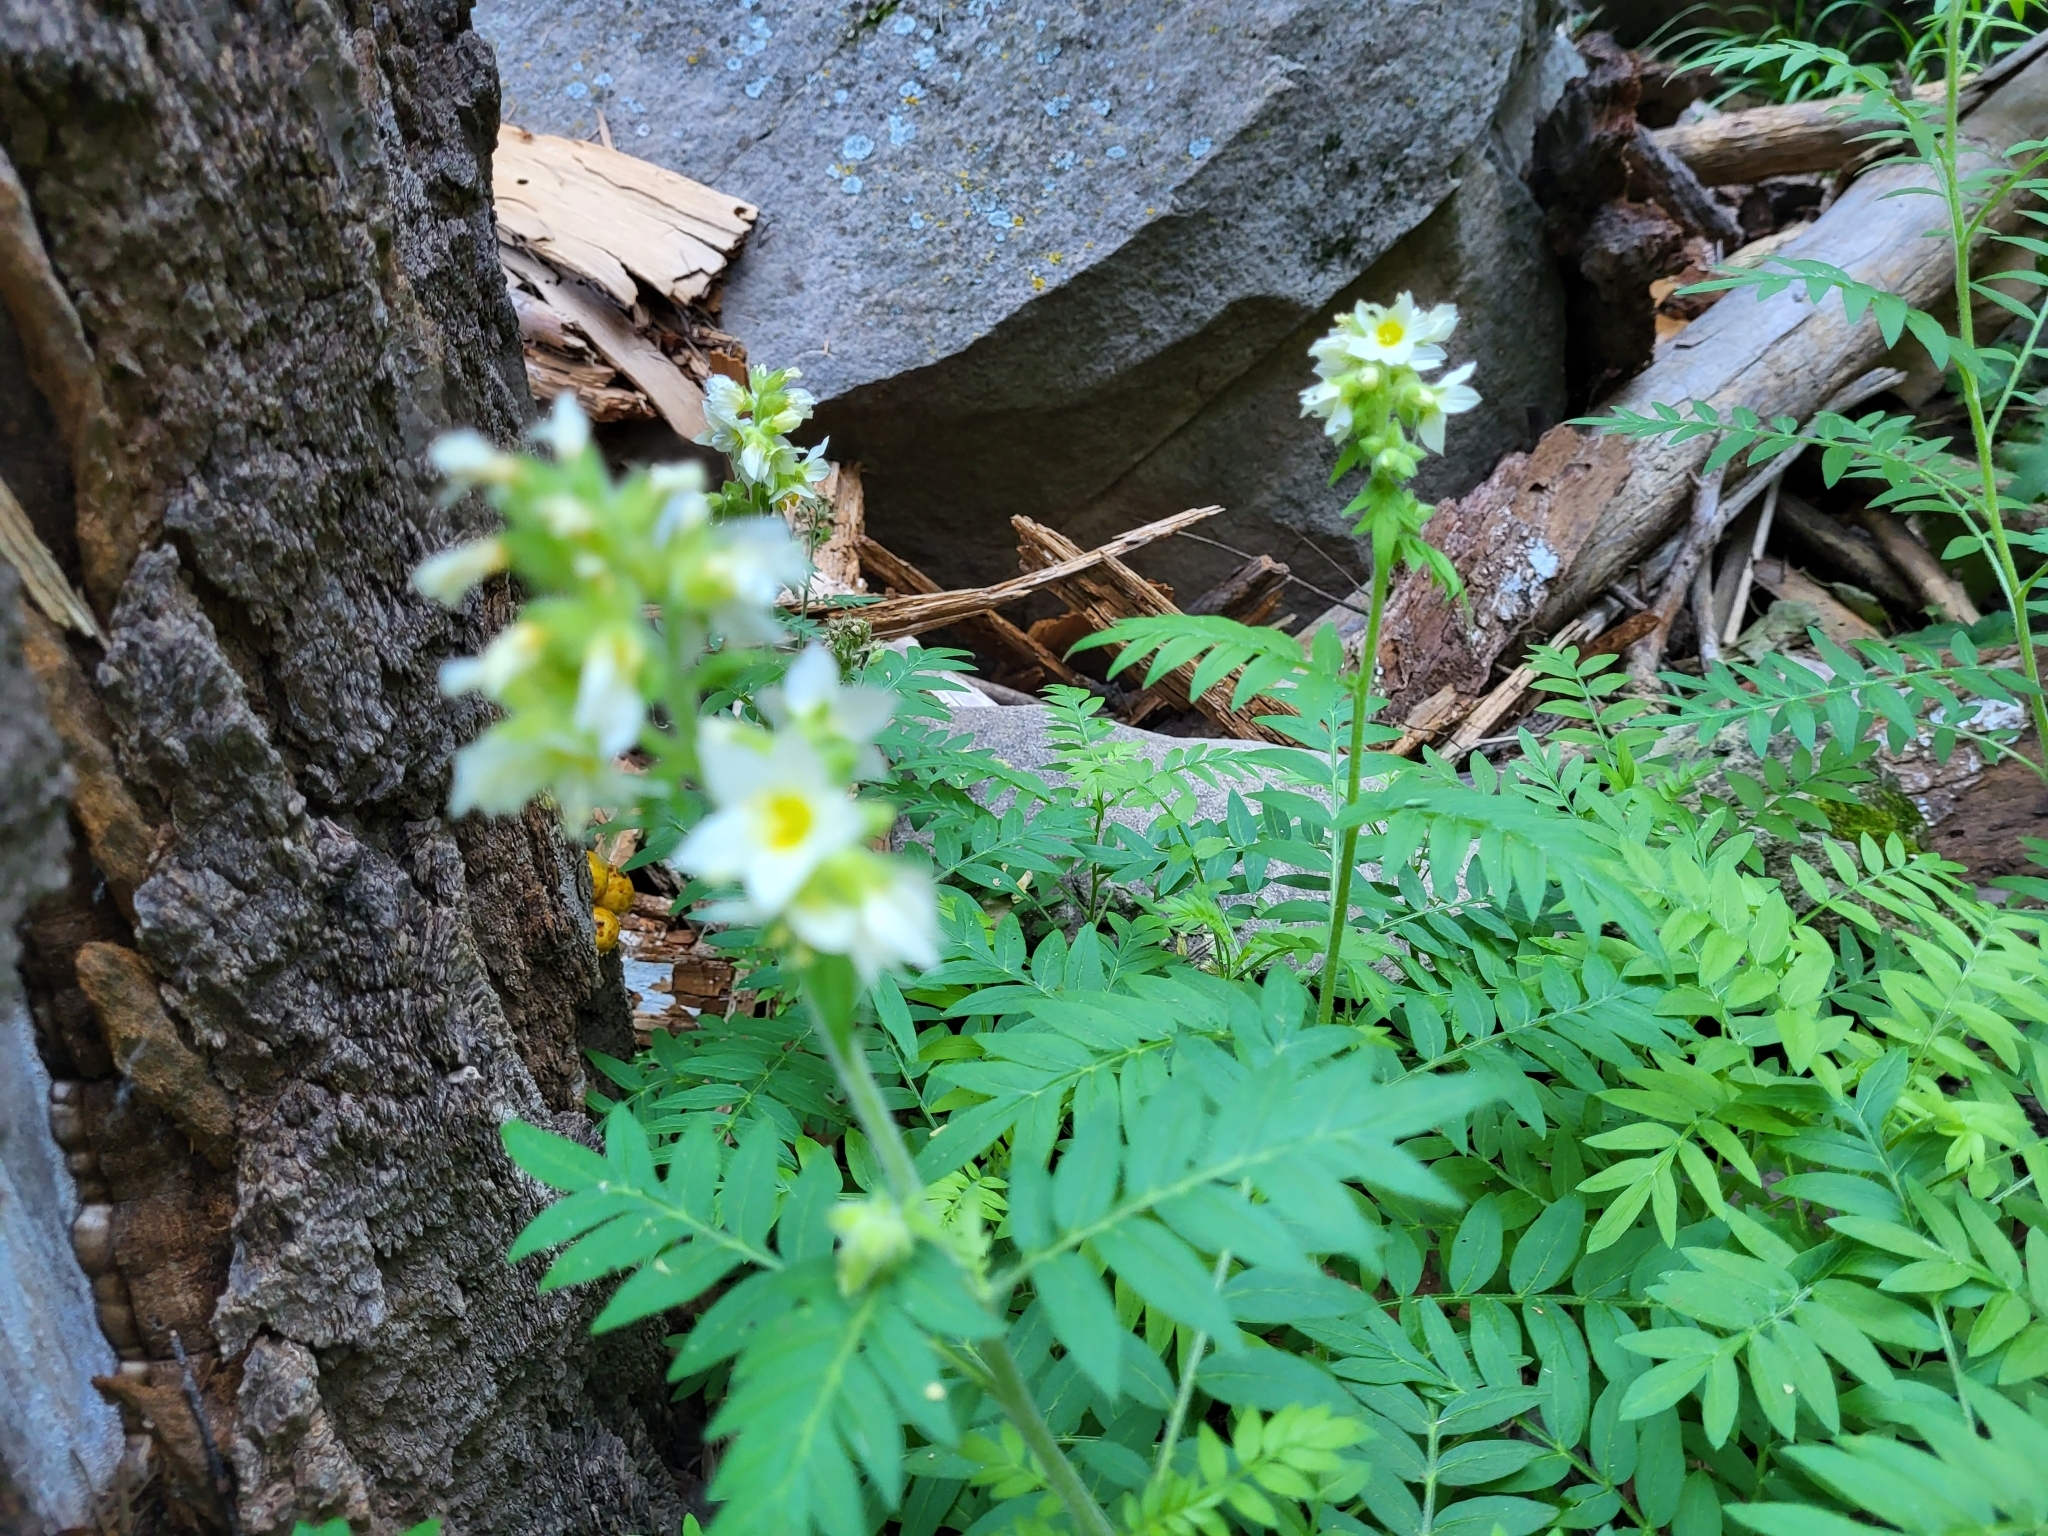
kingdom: Plantae
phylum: Tracheophyta
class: Magnoliopsida
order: Ericales
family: Polemoniaceae
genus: Polemonium
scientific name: Polemonium foliosissimum
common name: Leafy jacob's-ladder
